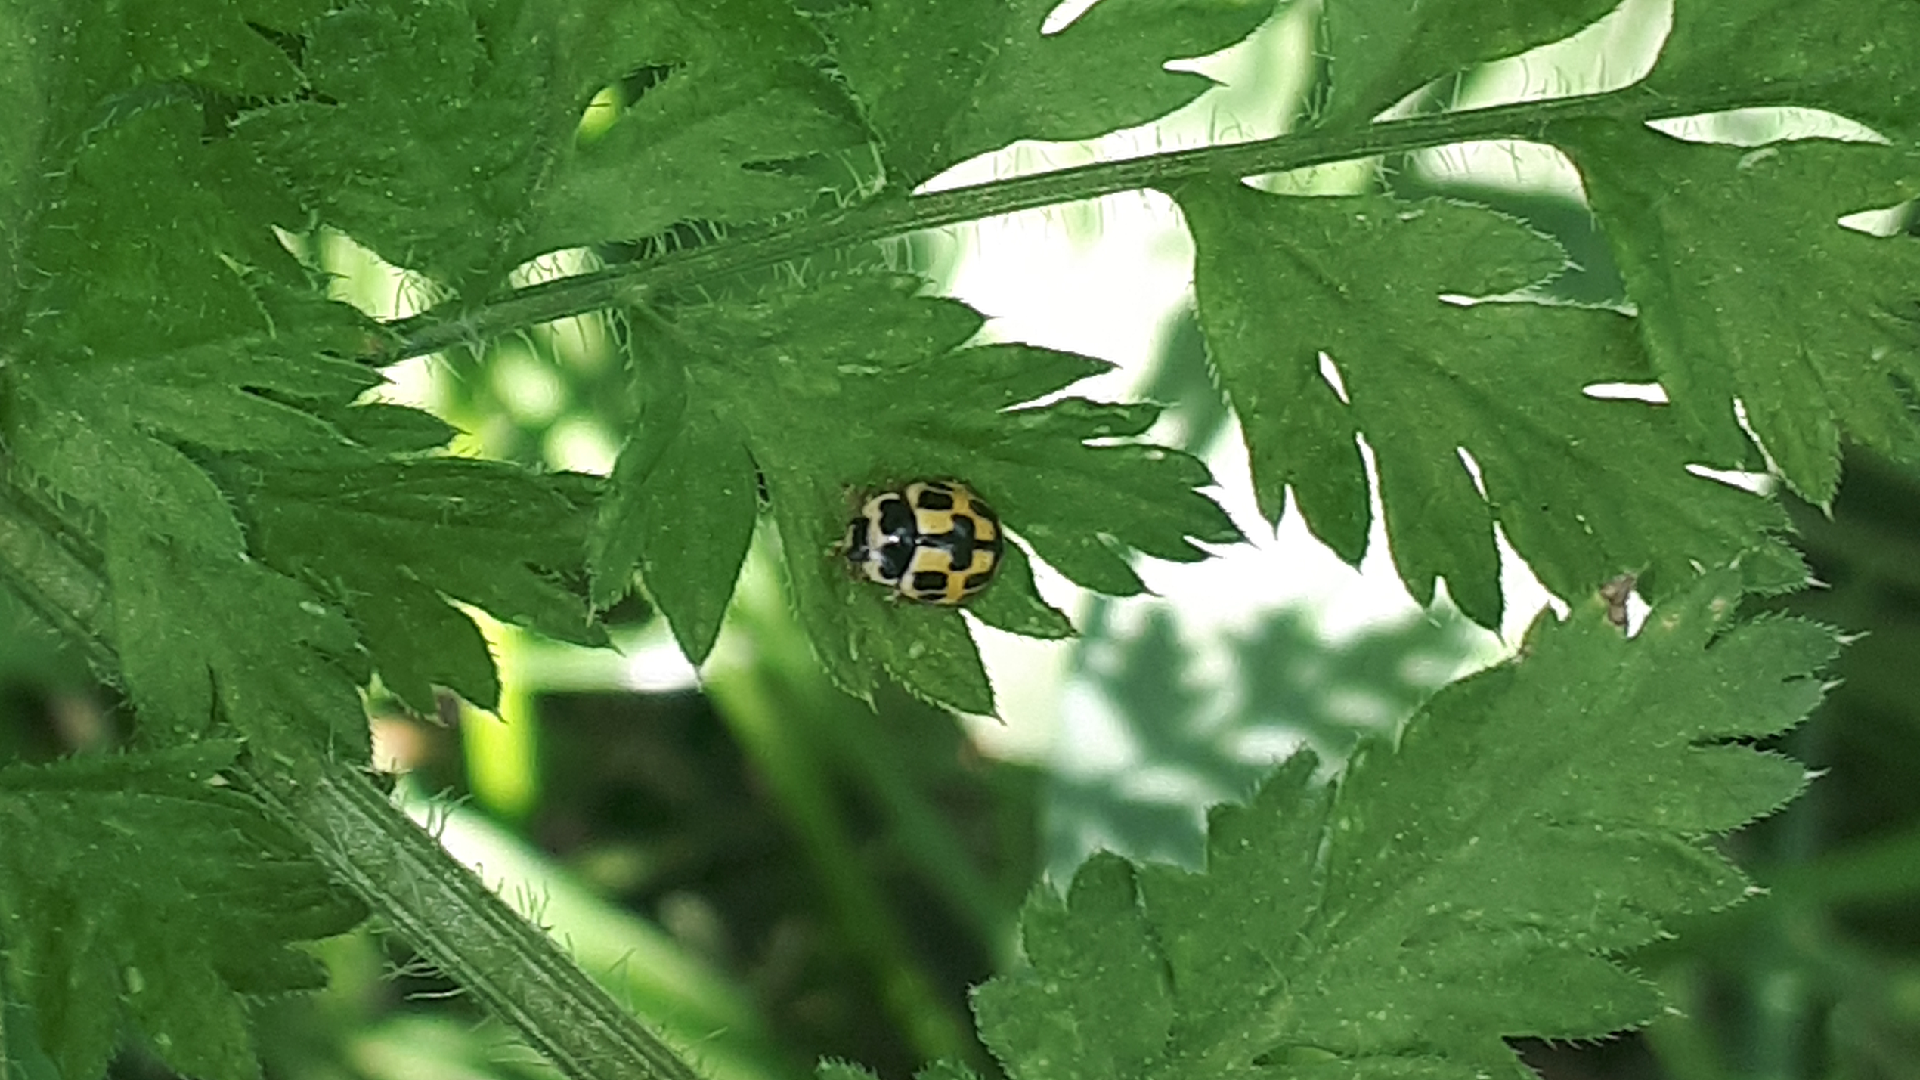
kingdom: Animalia
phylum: Arthropoda
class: Insecta
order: Coleoptera
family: Coccinellidae
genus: Propylaea
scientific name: Propylaea quatuordecimpunctata
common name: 14-spotted ladybird beetle
